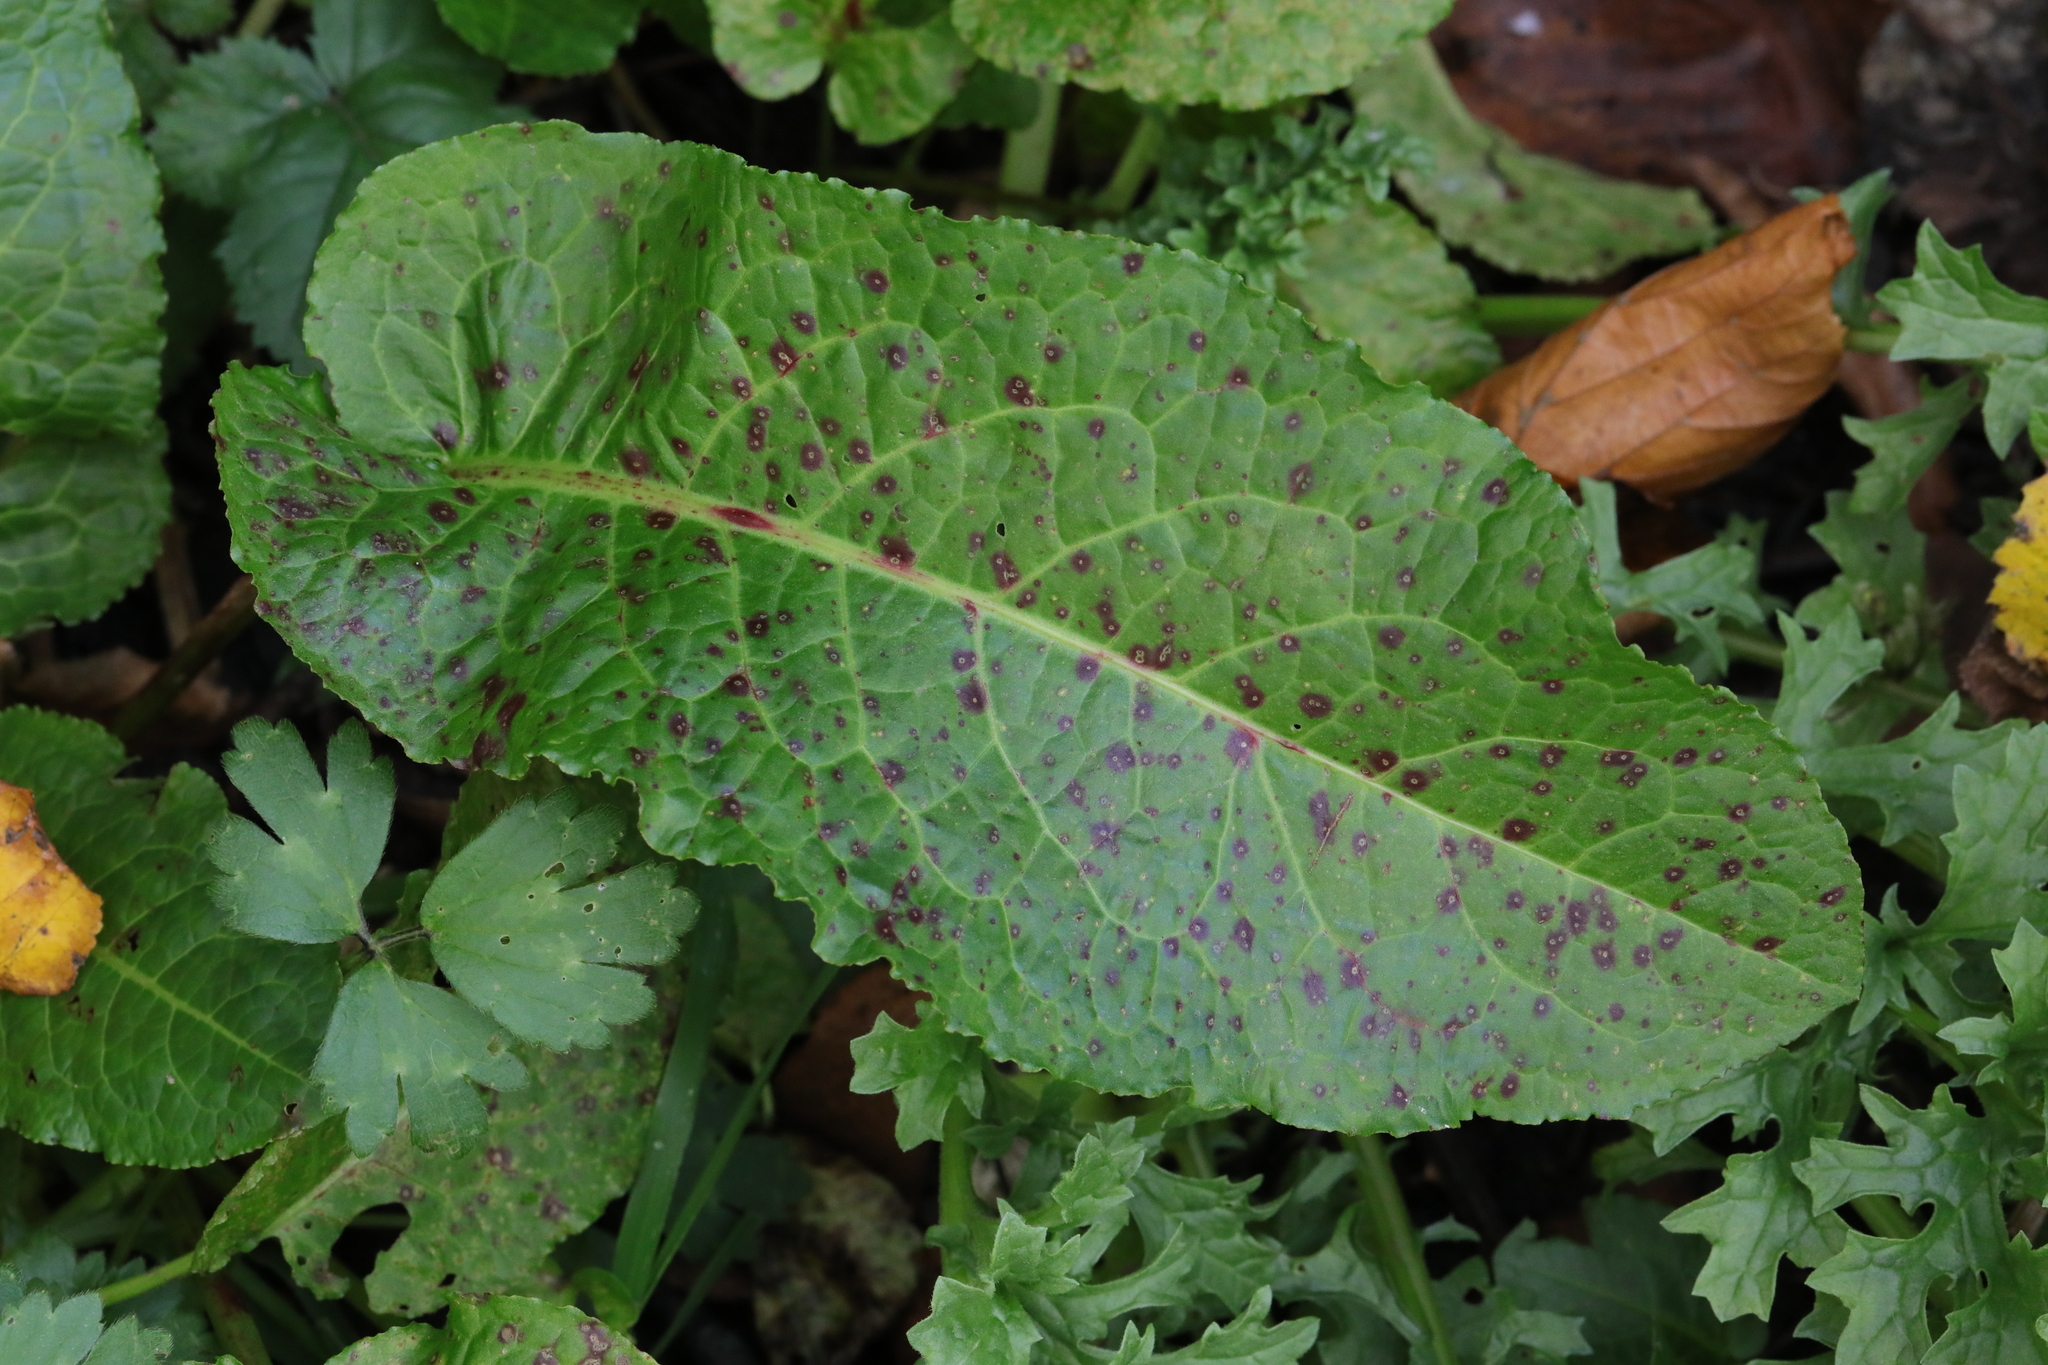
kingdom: Fungi
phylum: Ascomycota
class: Dothideomycetes
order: Mycosphaerellales
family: Mycosphaerellaceae
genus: Ramularia
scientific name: Ramularia rubella
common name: Red dock spot
